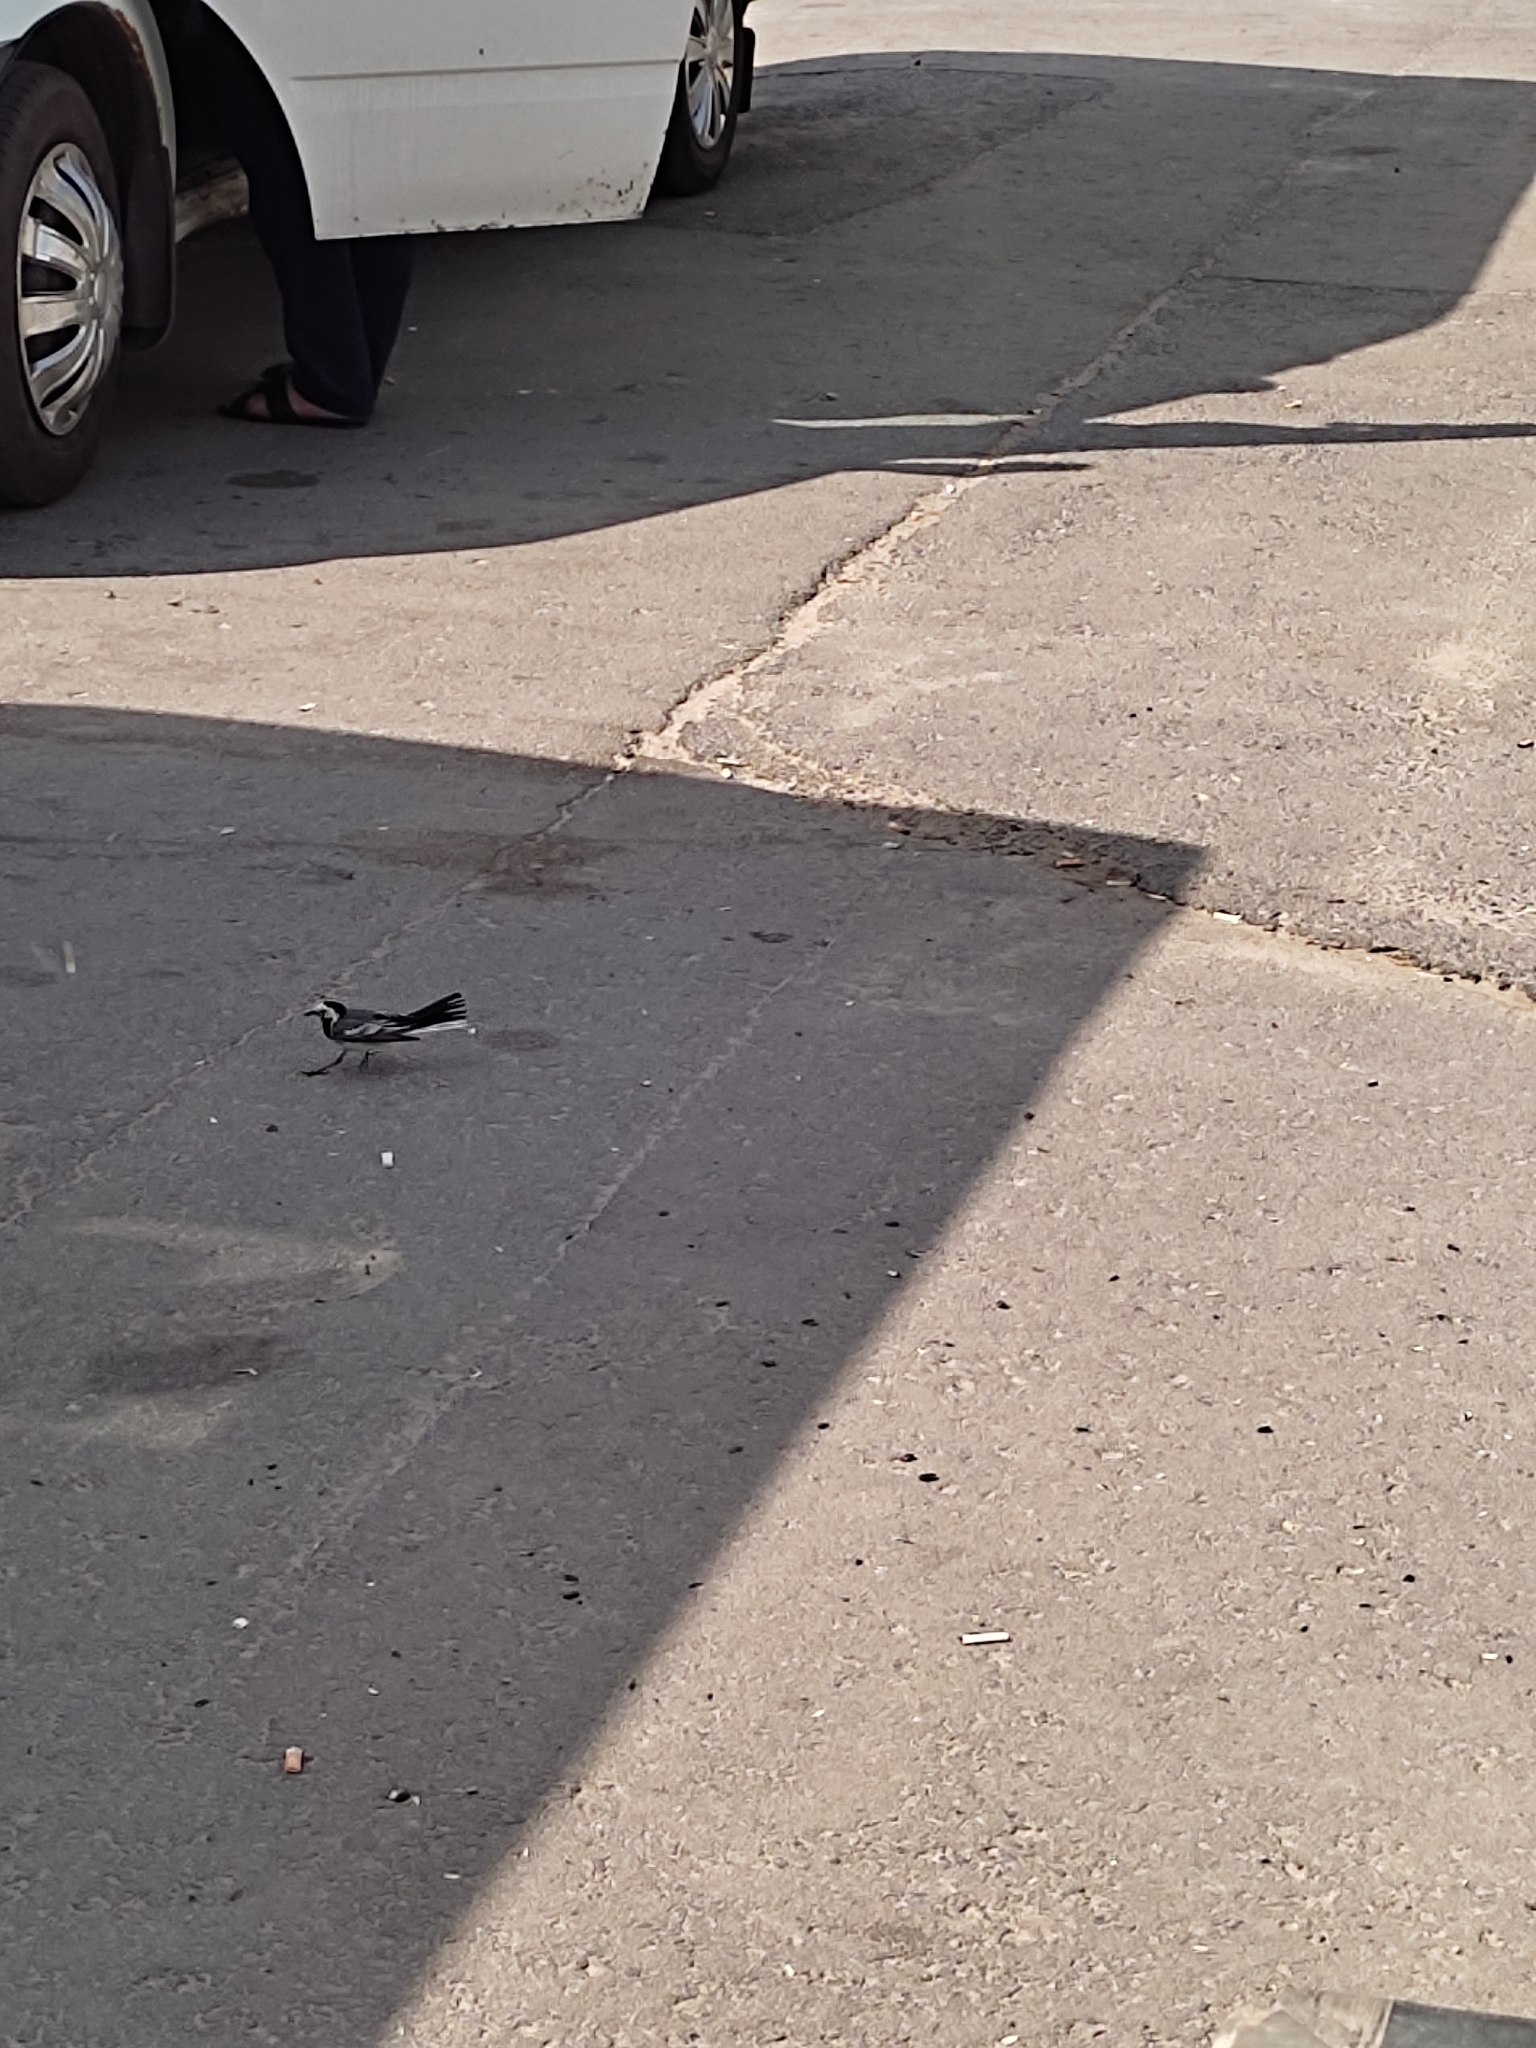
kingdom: Animalia
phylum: Chordata
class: Aves
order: Passeriformes
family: Motacillidae
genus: Motacilla
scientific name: Motacilla alba
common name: White wagtail
